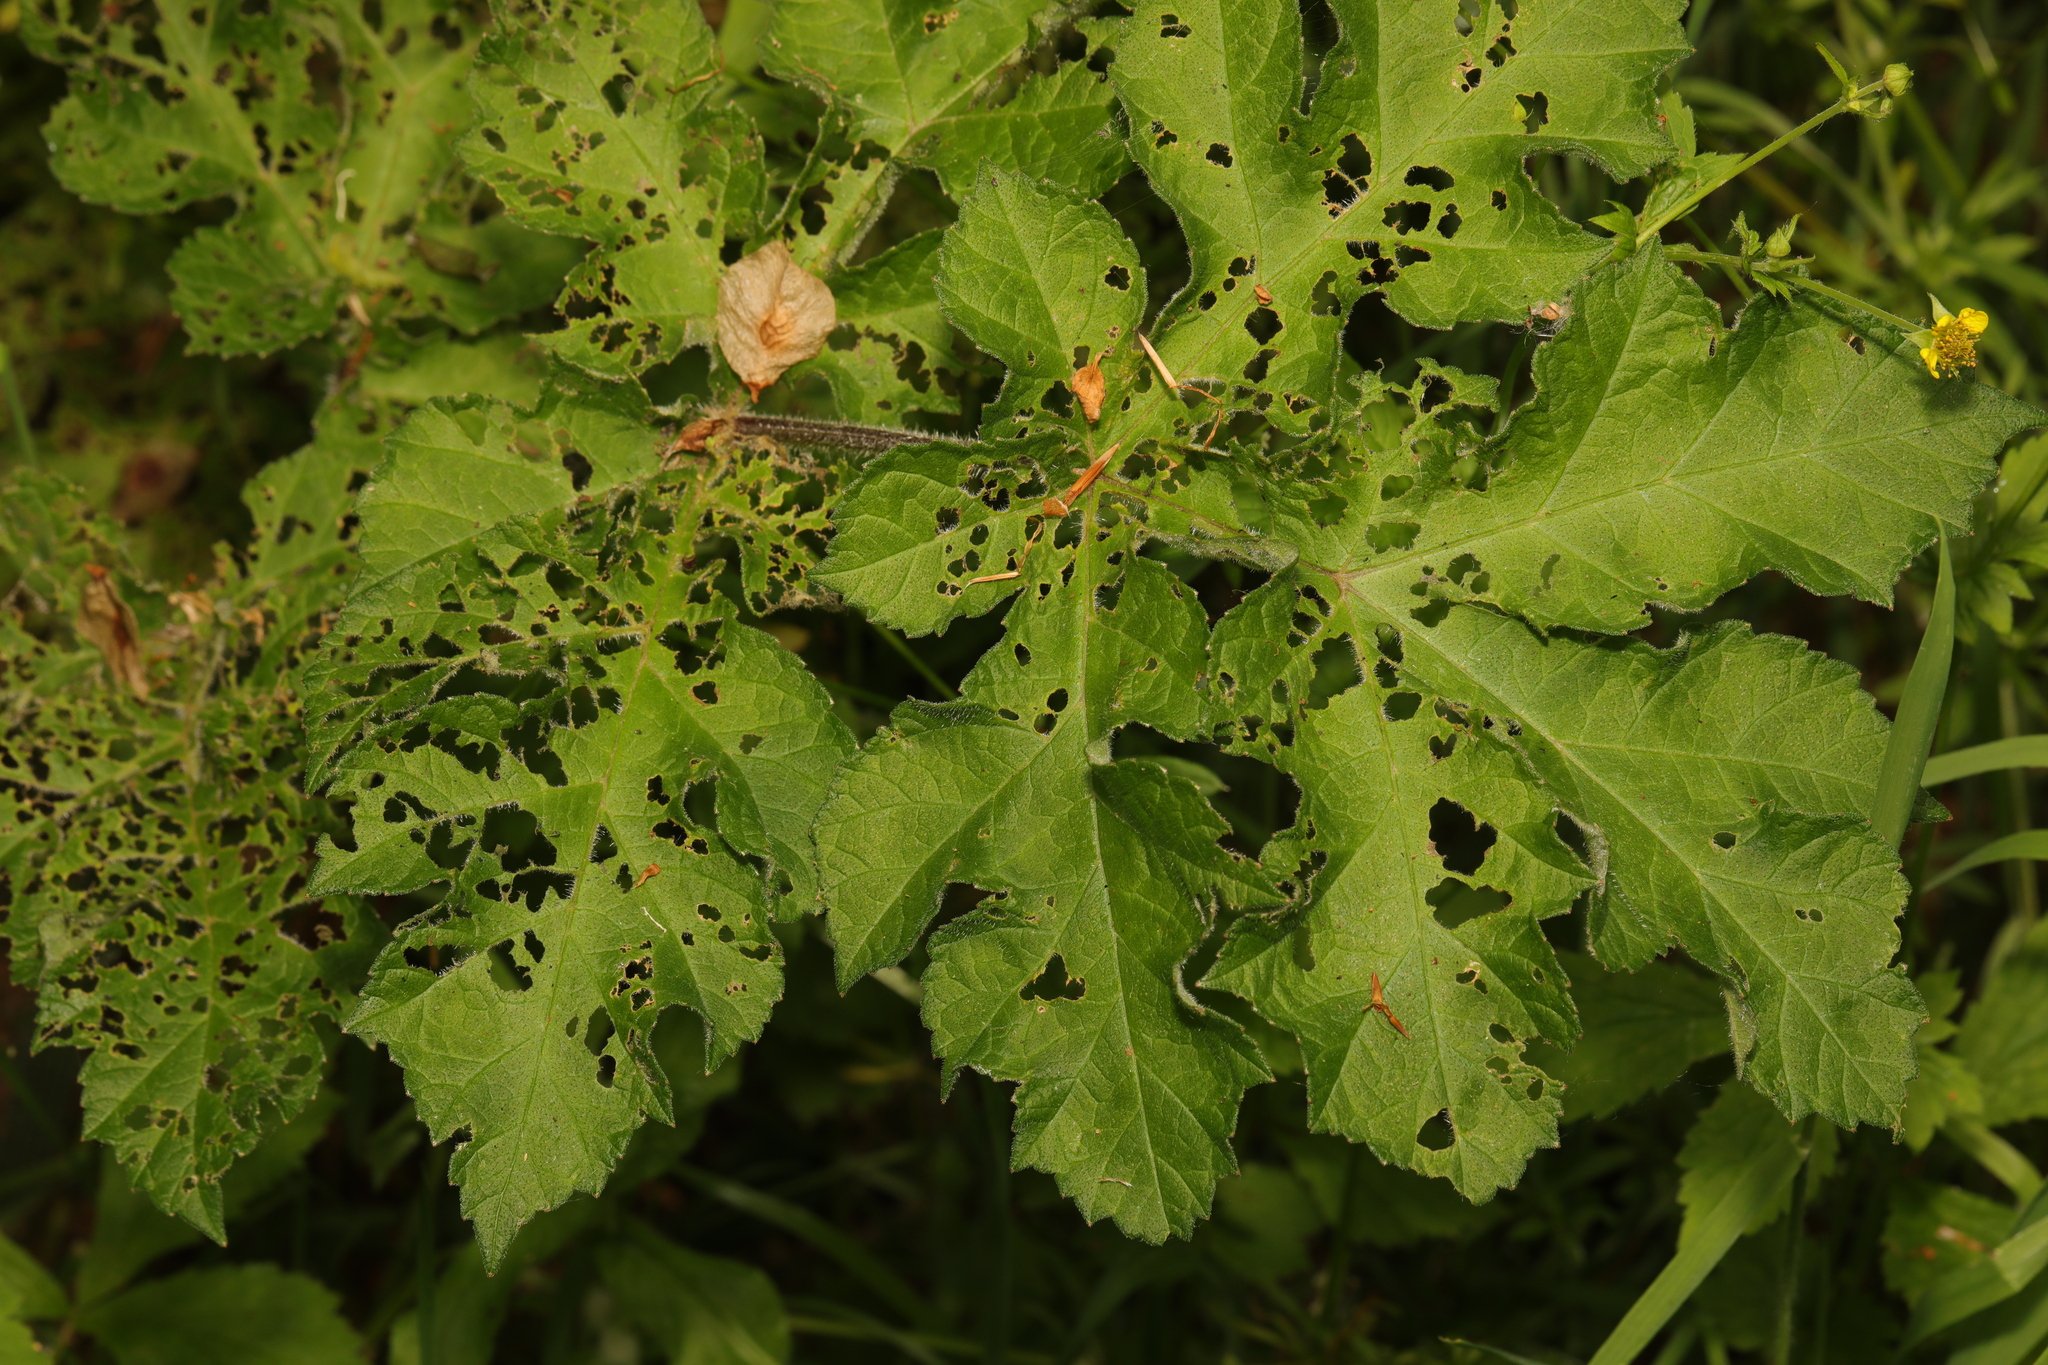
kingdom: Plantae
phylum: Tracheophyta
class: Magnoliopsida
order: Apiales
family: Apiaceae
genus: Heracleum
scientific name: Heracleum sphondylium
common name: Hogweed
